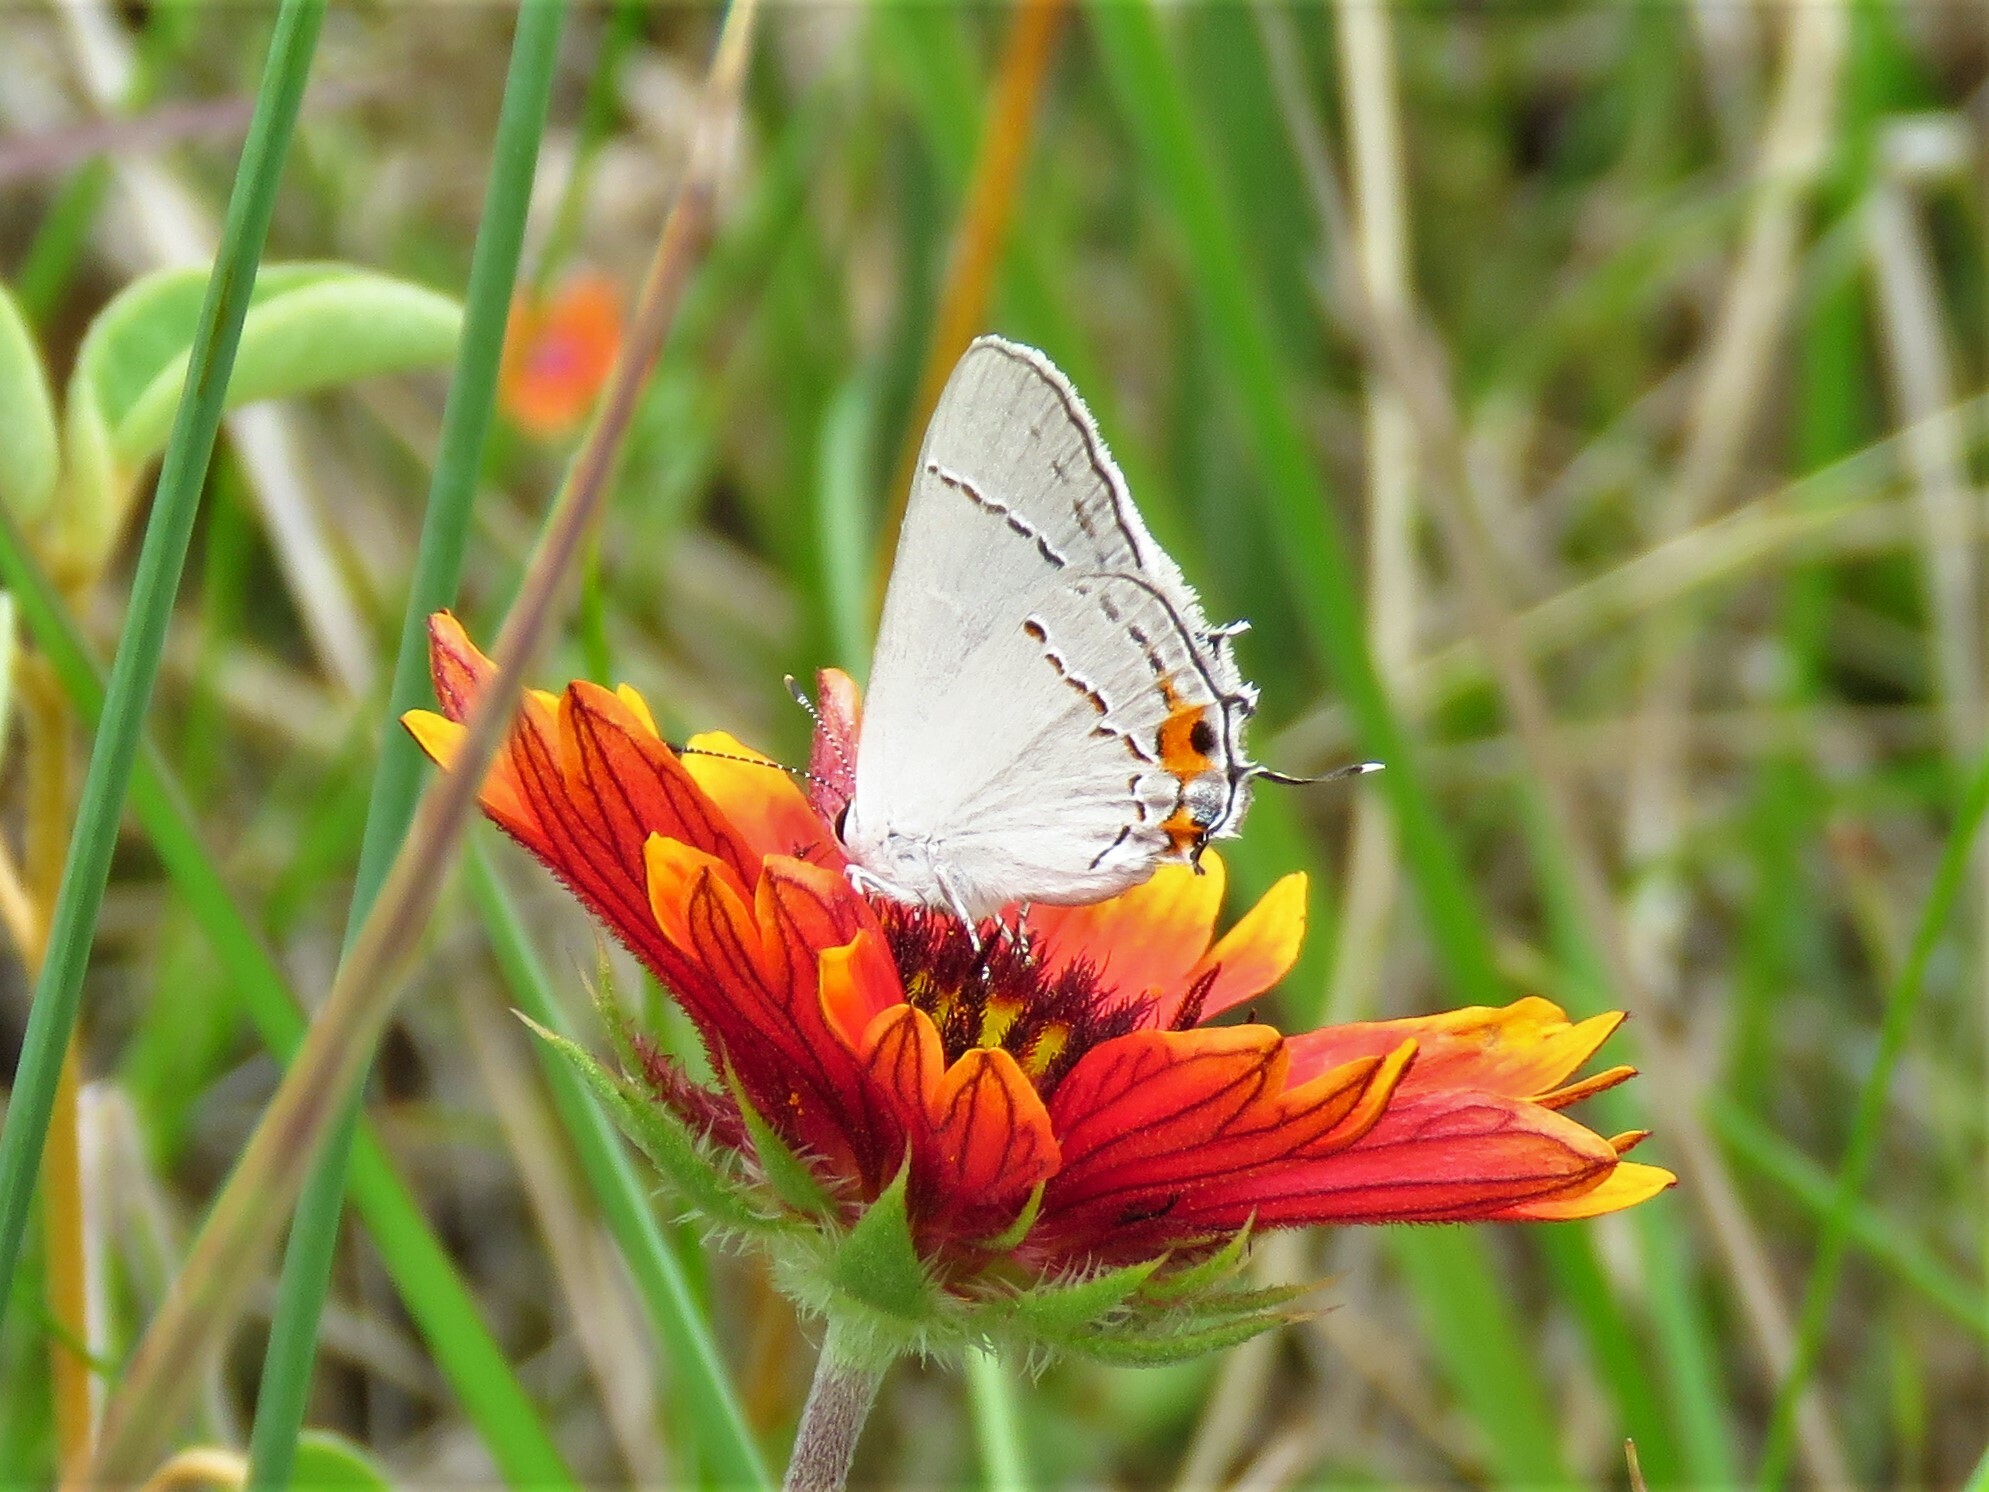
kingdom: Animalia
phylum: Arthropoda
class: Insecta
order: Lepidoptera
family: Lycaenidae
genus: Strymon
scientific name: Strymon melinus
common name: Gray hairstreak
